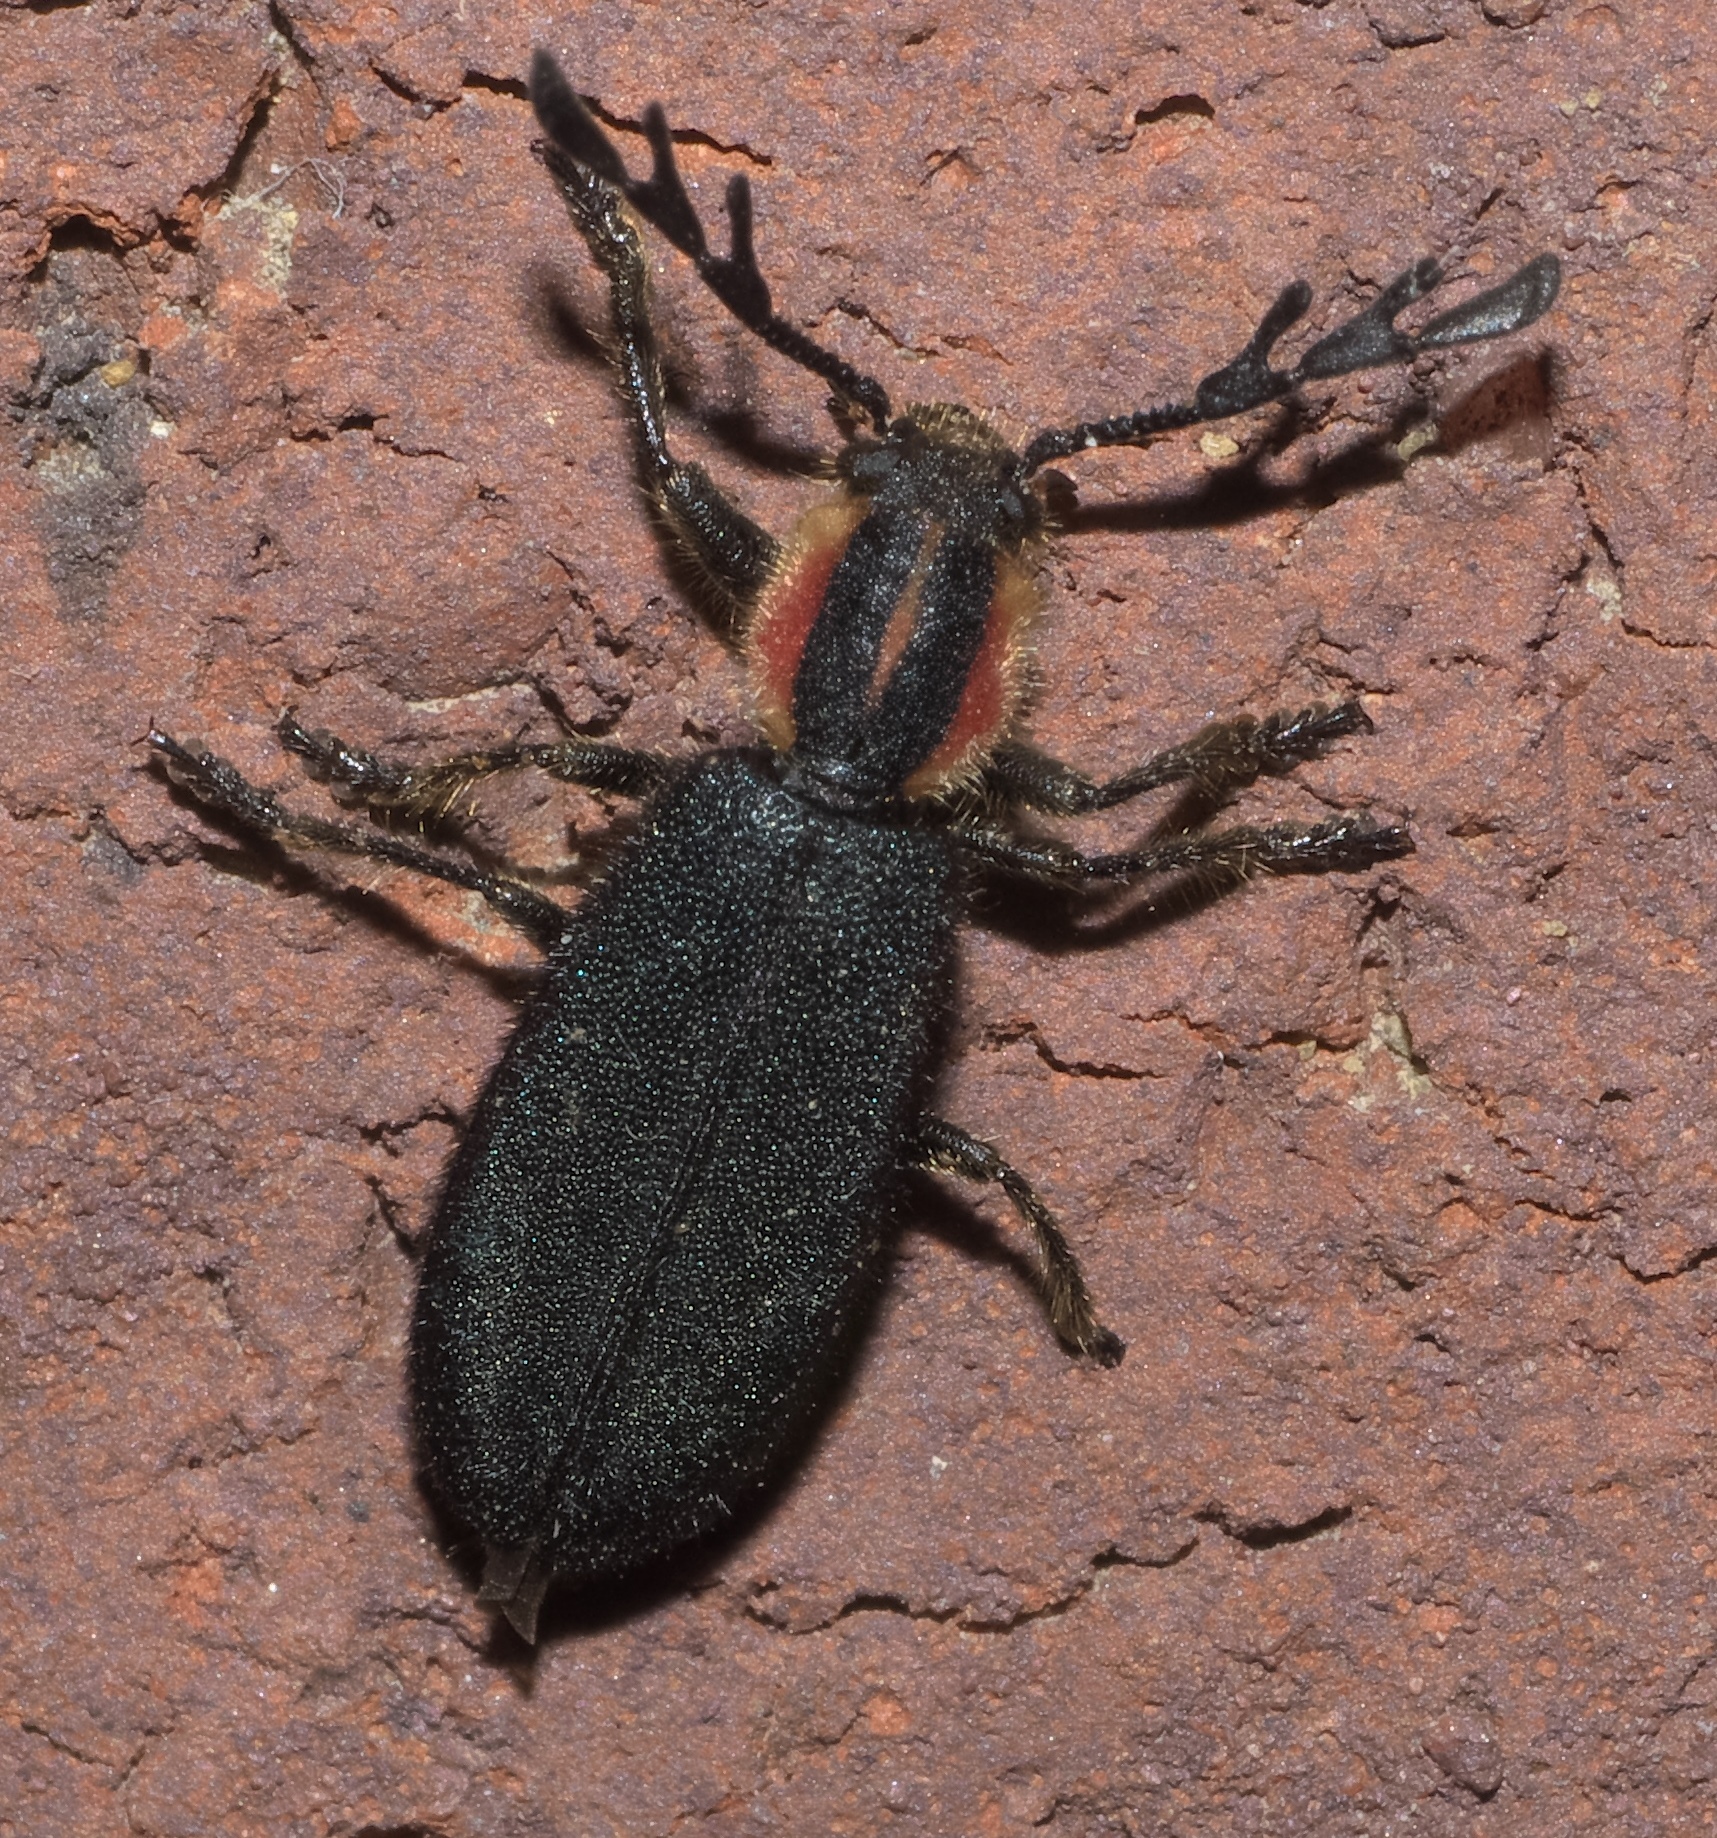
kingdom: Animalia
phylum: Arthropoda
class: Insecta
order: Coleoptera
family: Cleridae
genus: Chariessa
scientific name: Chariessa pilosa
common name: Pilose checkered beetle
